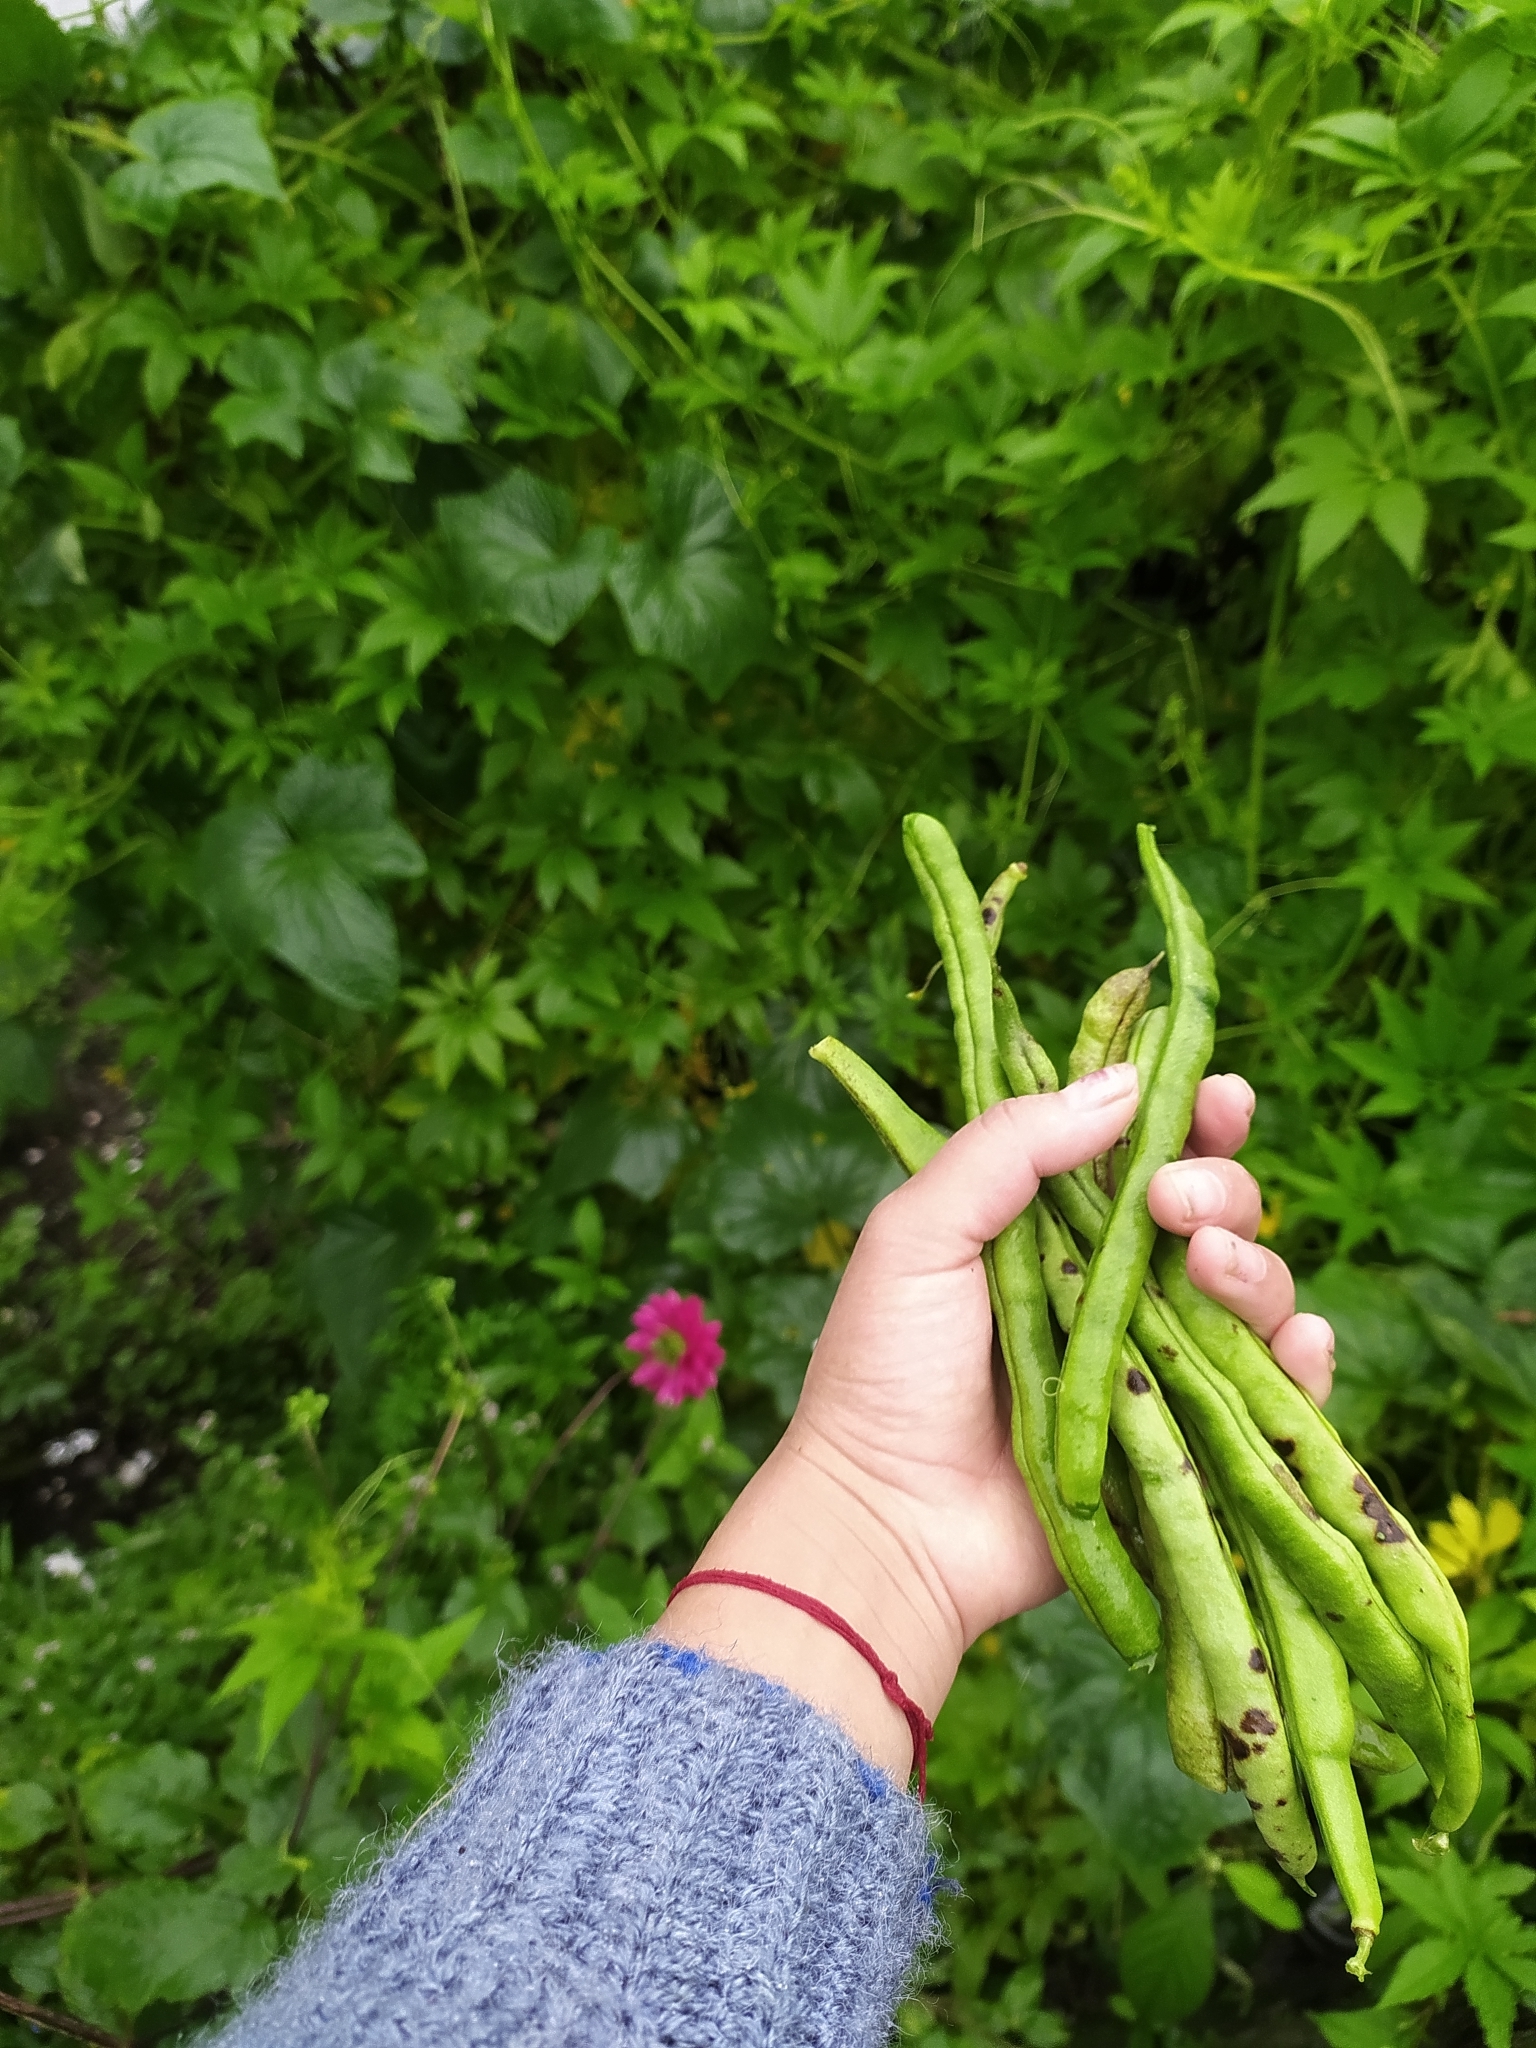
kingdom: Plantae
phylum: Tracheophyta
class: Magnoliopsida
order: Fabales
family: Fabaceae
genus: Phaseolus
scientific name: Phaseolus vulgaris
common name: Bean
